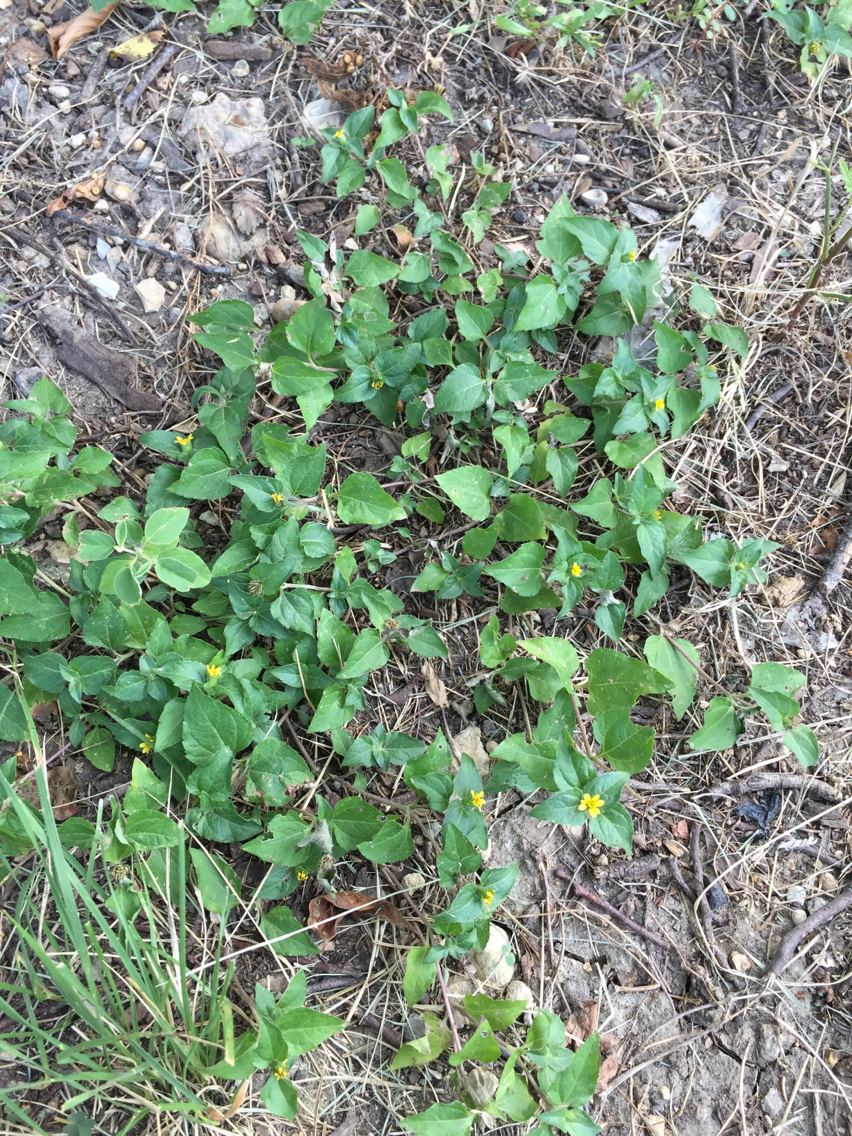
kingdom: Plantae
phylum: Tracheophyta
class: Magnoliopsida
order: Asterales
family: Asteraceae
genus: Calyptocarpus
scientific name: Calyptocarpus vialis
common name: Straggler daisy
